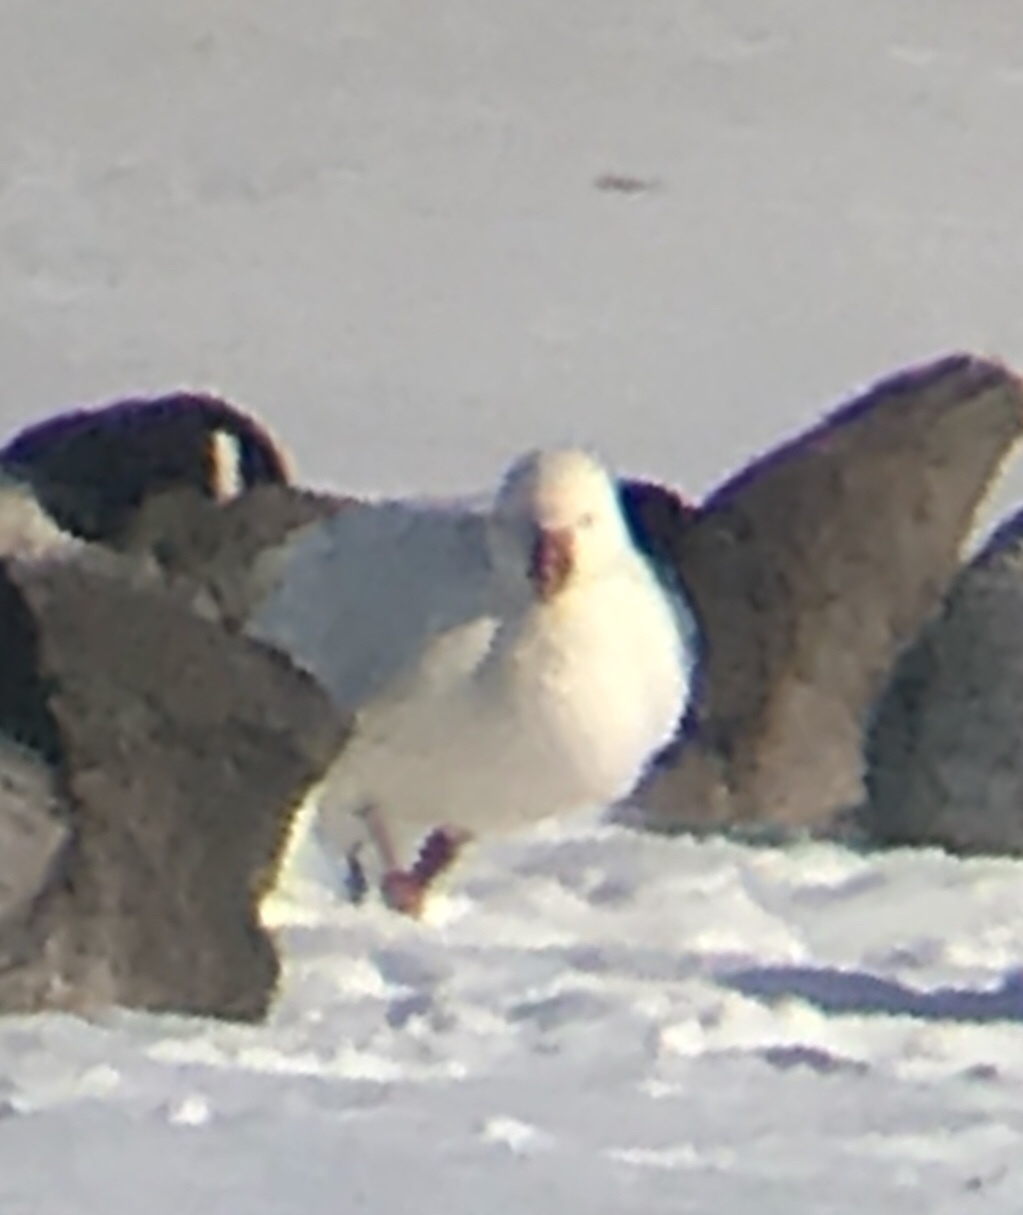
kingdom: Animalia
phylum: Chordata
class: Aves
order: Anseriformes
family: Anatidae
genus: Anser
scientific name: Anser rossii
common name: Ross's goose
